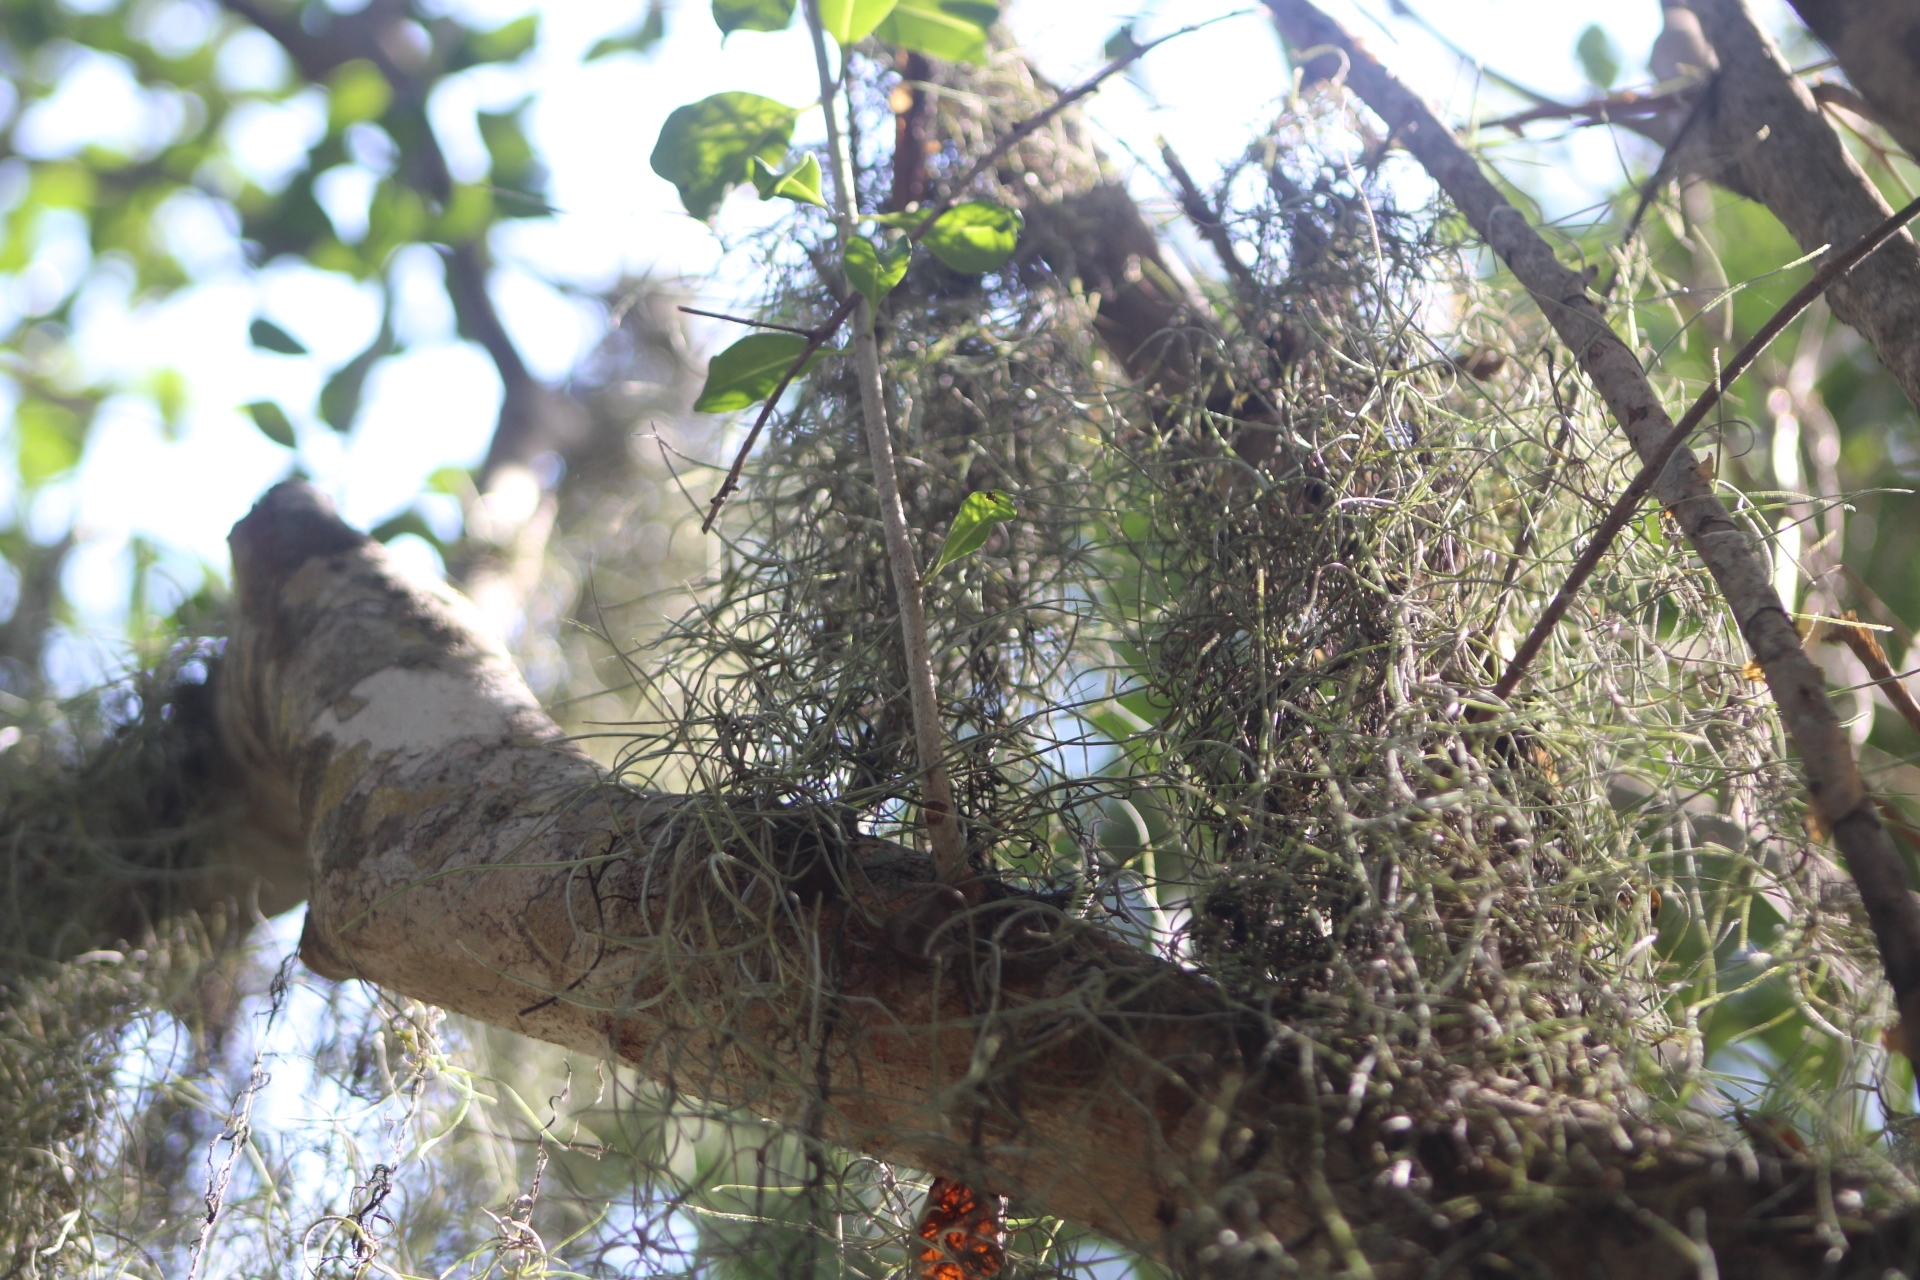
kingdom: Plantae
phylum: Tracheophyta
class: Liliopsida
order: Poales
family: Bromeliaceae
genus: Tillandsia
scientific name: Tillandsia usneoides
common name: Spanish moss
